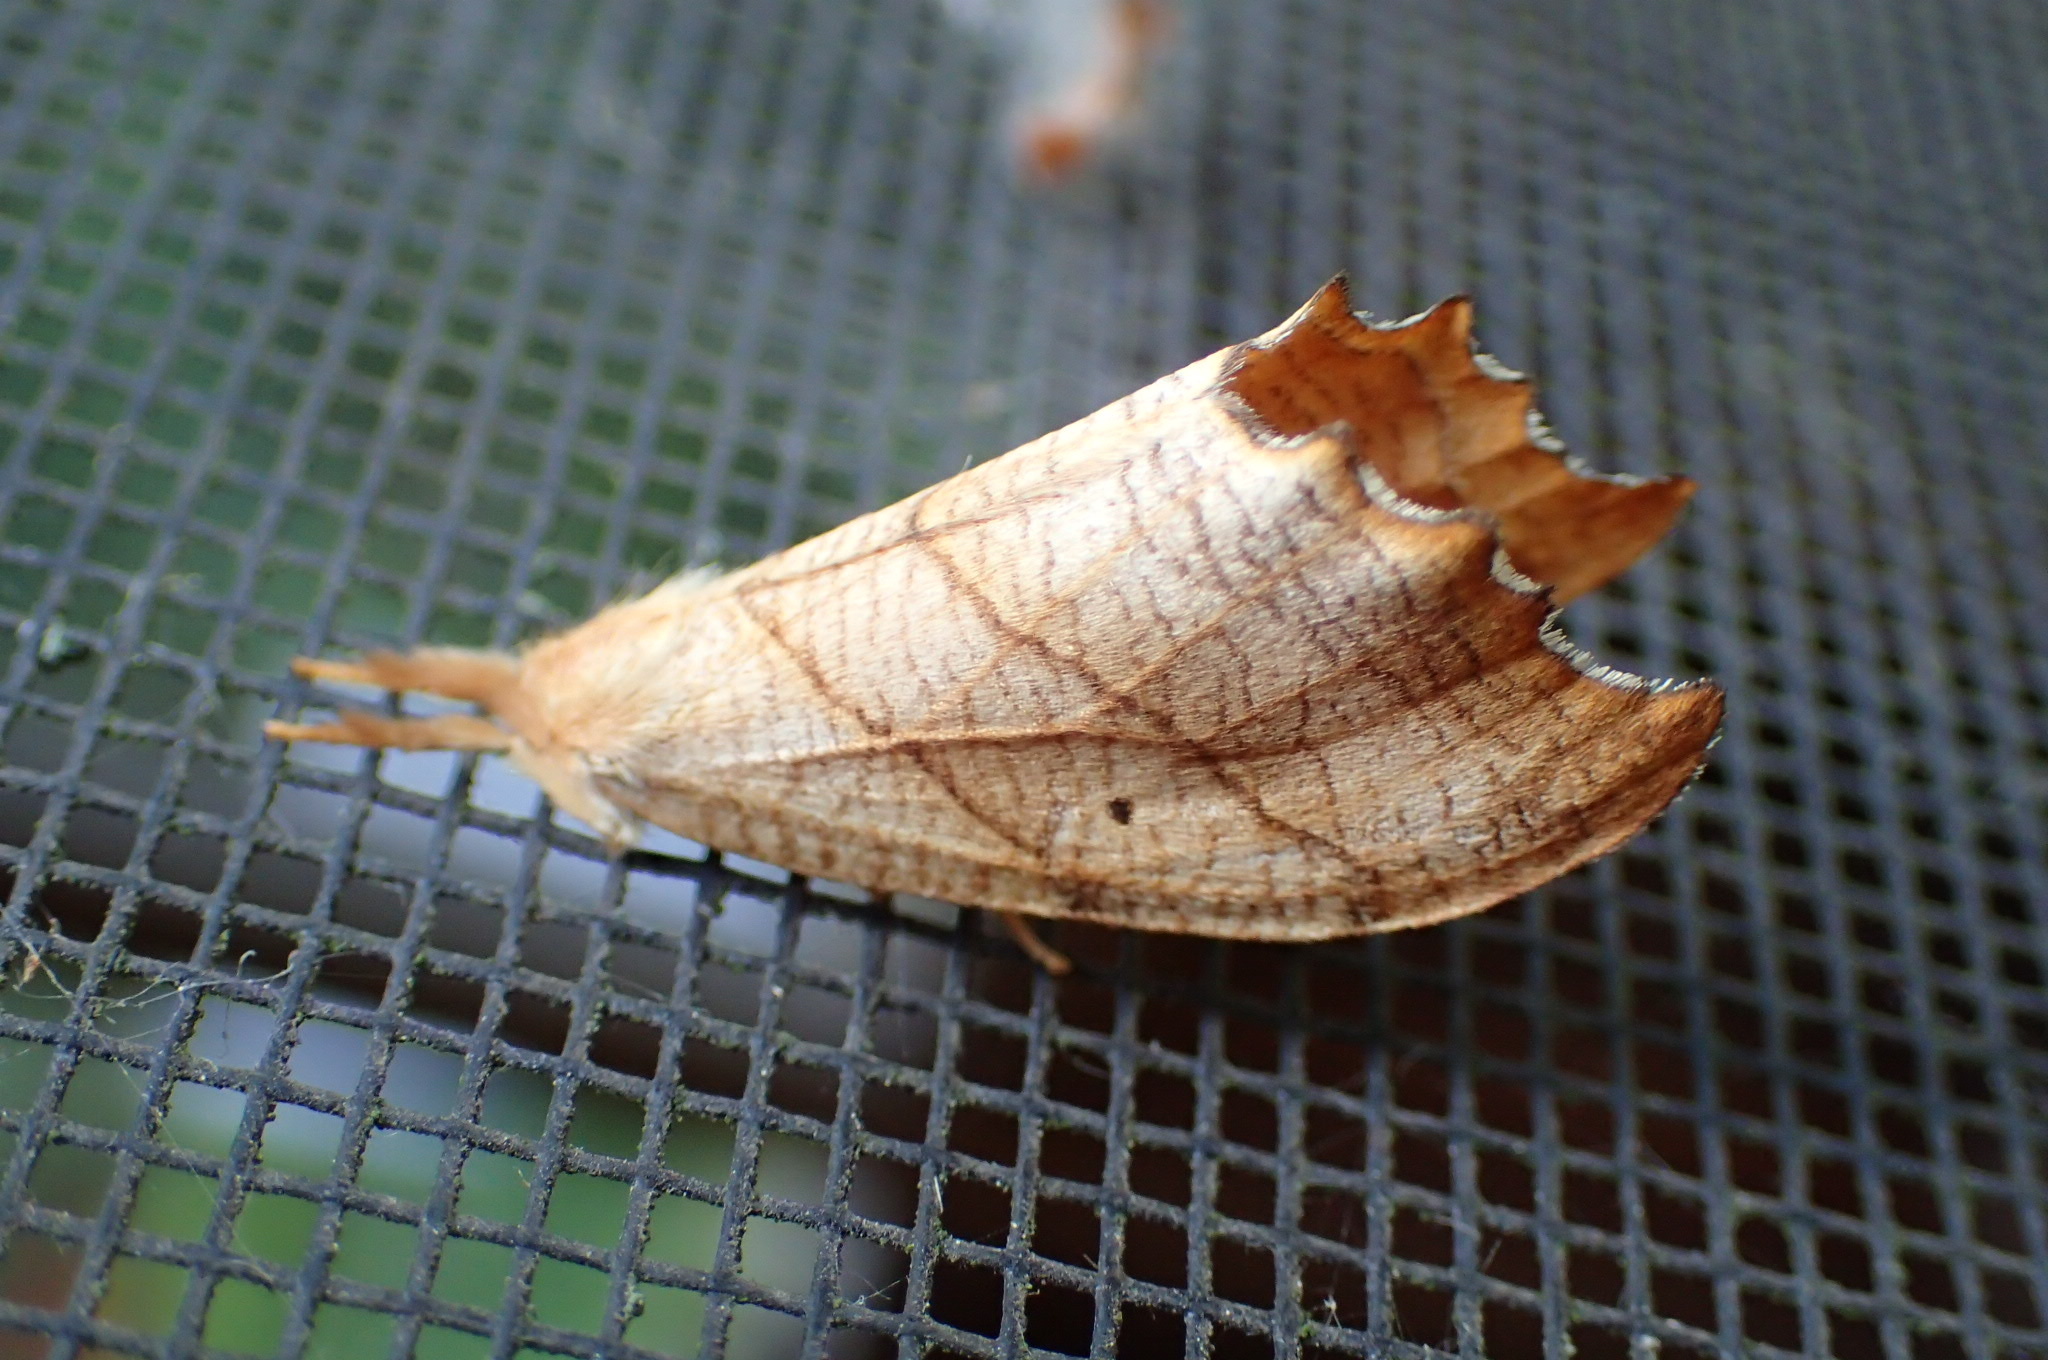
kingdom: Animalia
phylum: Arthropoda
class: Insecta
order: Lepidoptera
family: Drepanidae
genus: Falcaria
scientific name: Falcaria bilineata
